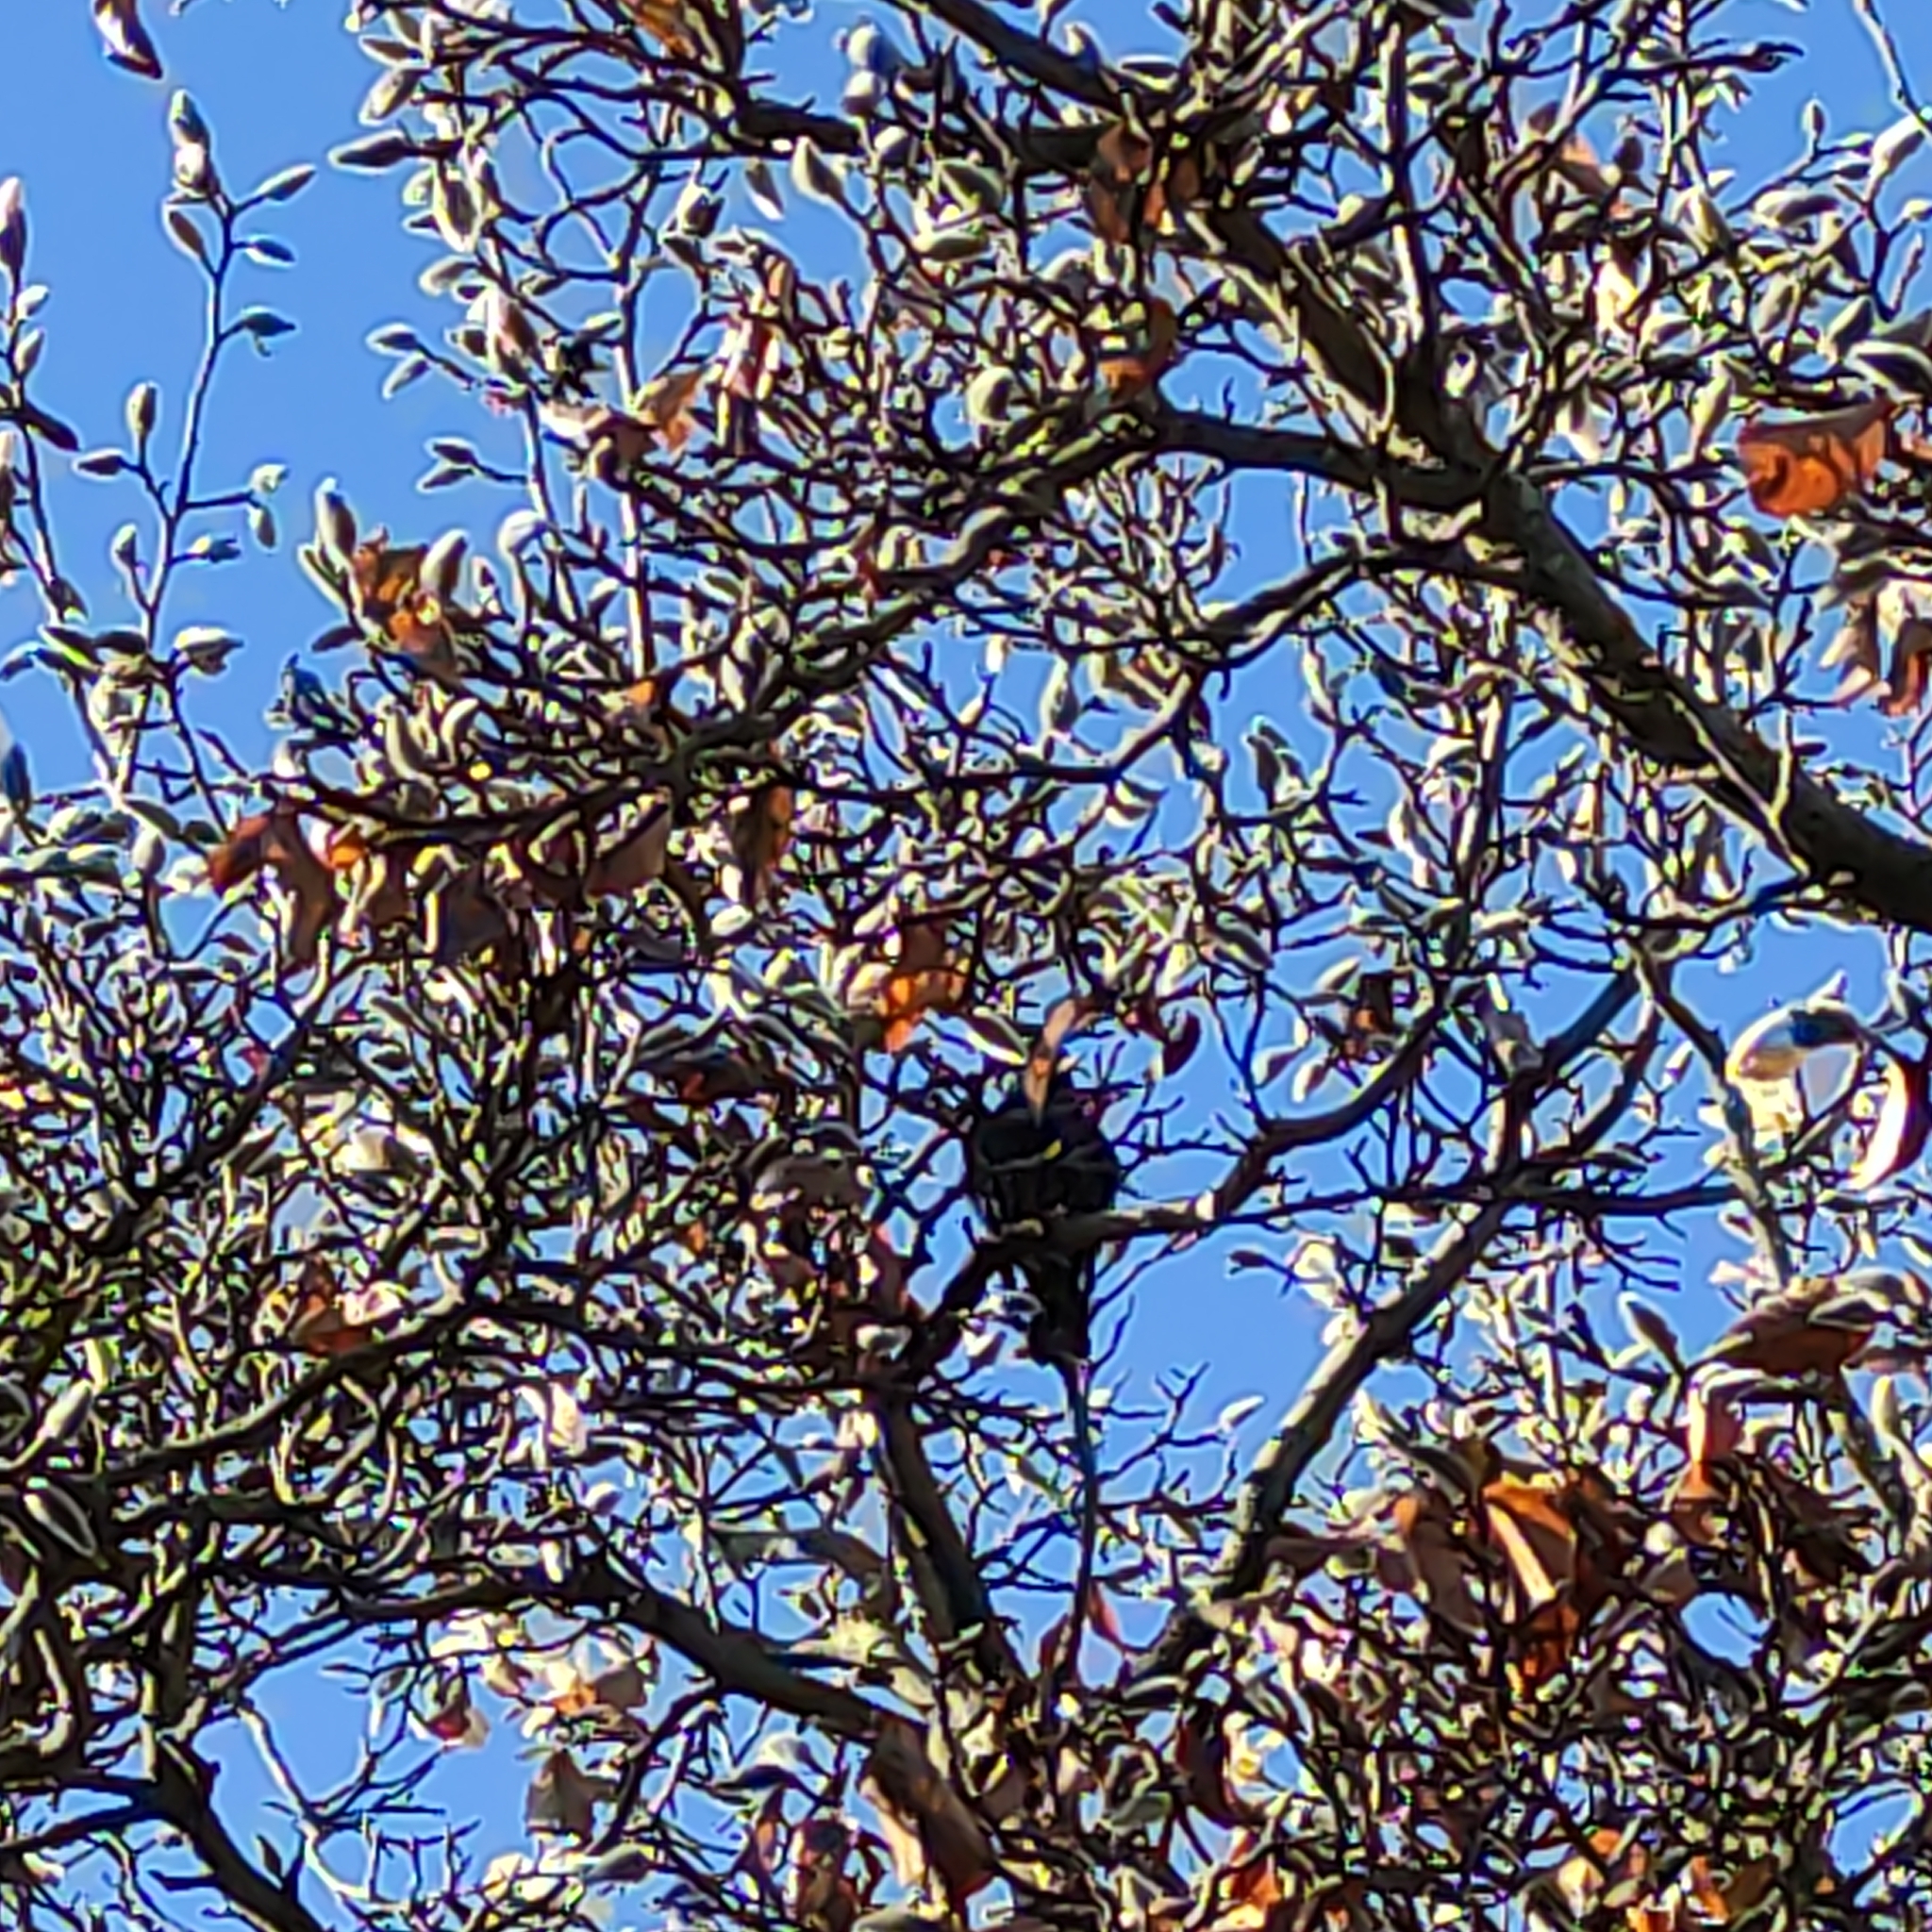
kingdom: Animalia
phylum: Chordata
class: Aves
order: Passeriformes
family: Sturnidae
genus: Sturnus
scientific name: Sturnus vulgaris
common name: Common starling
